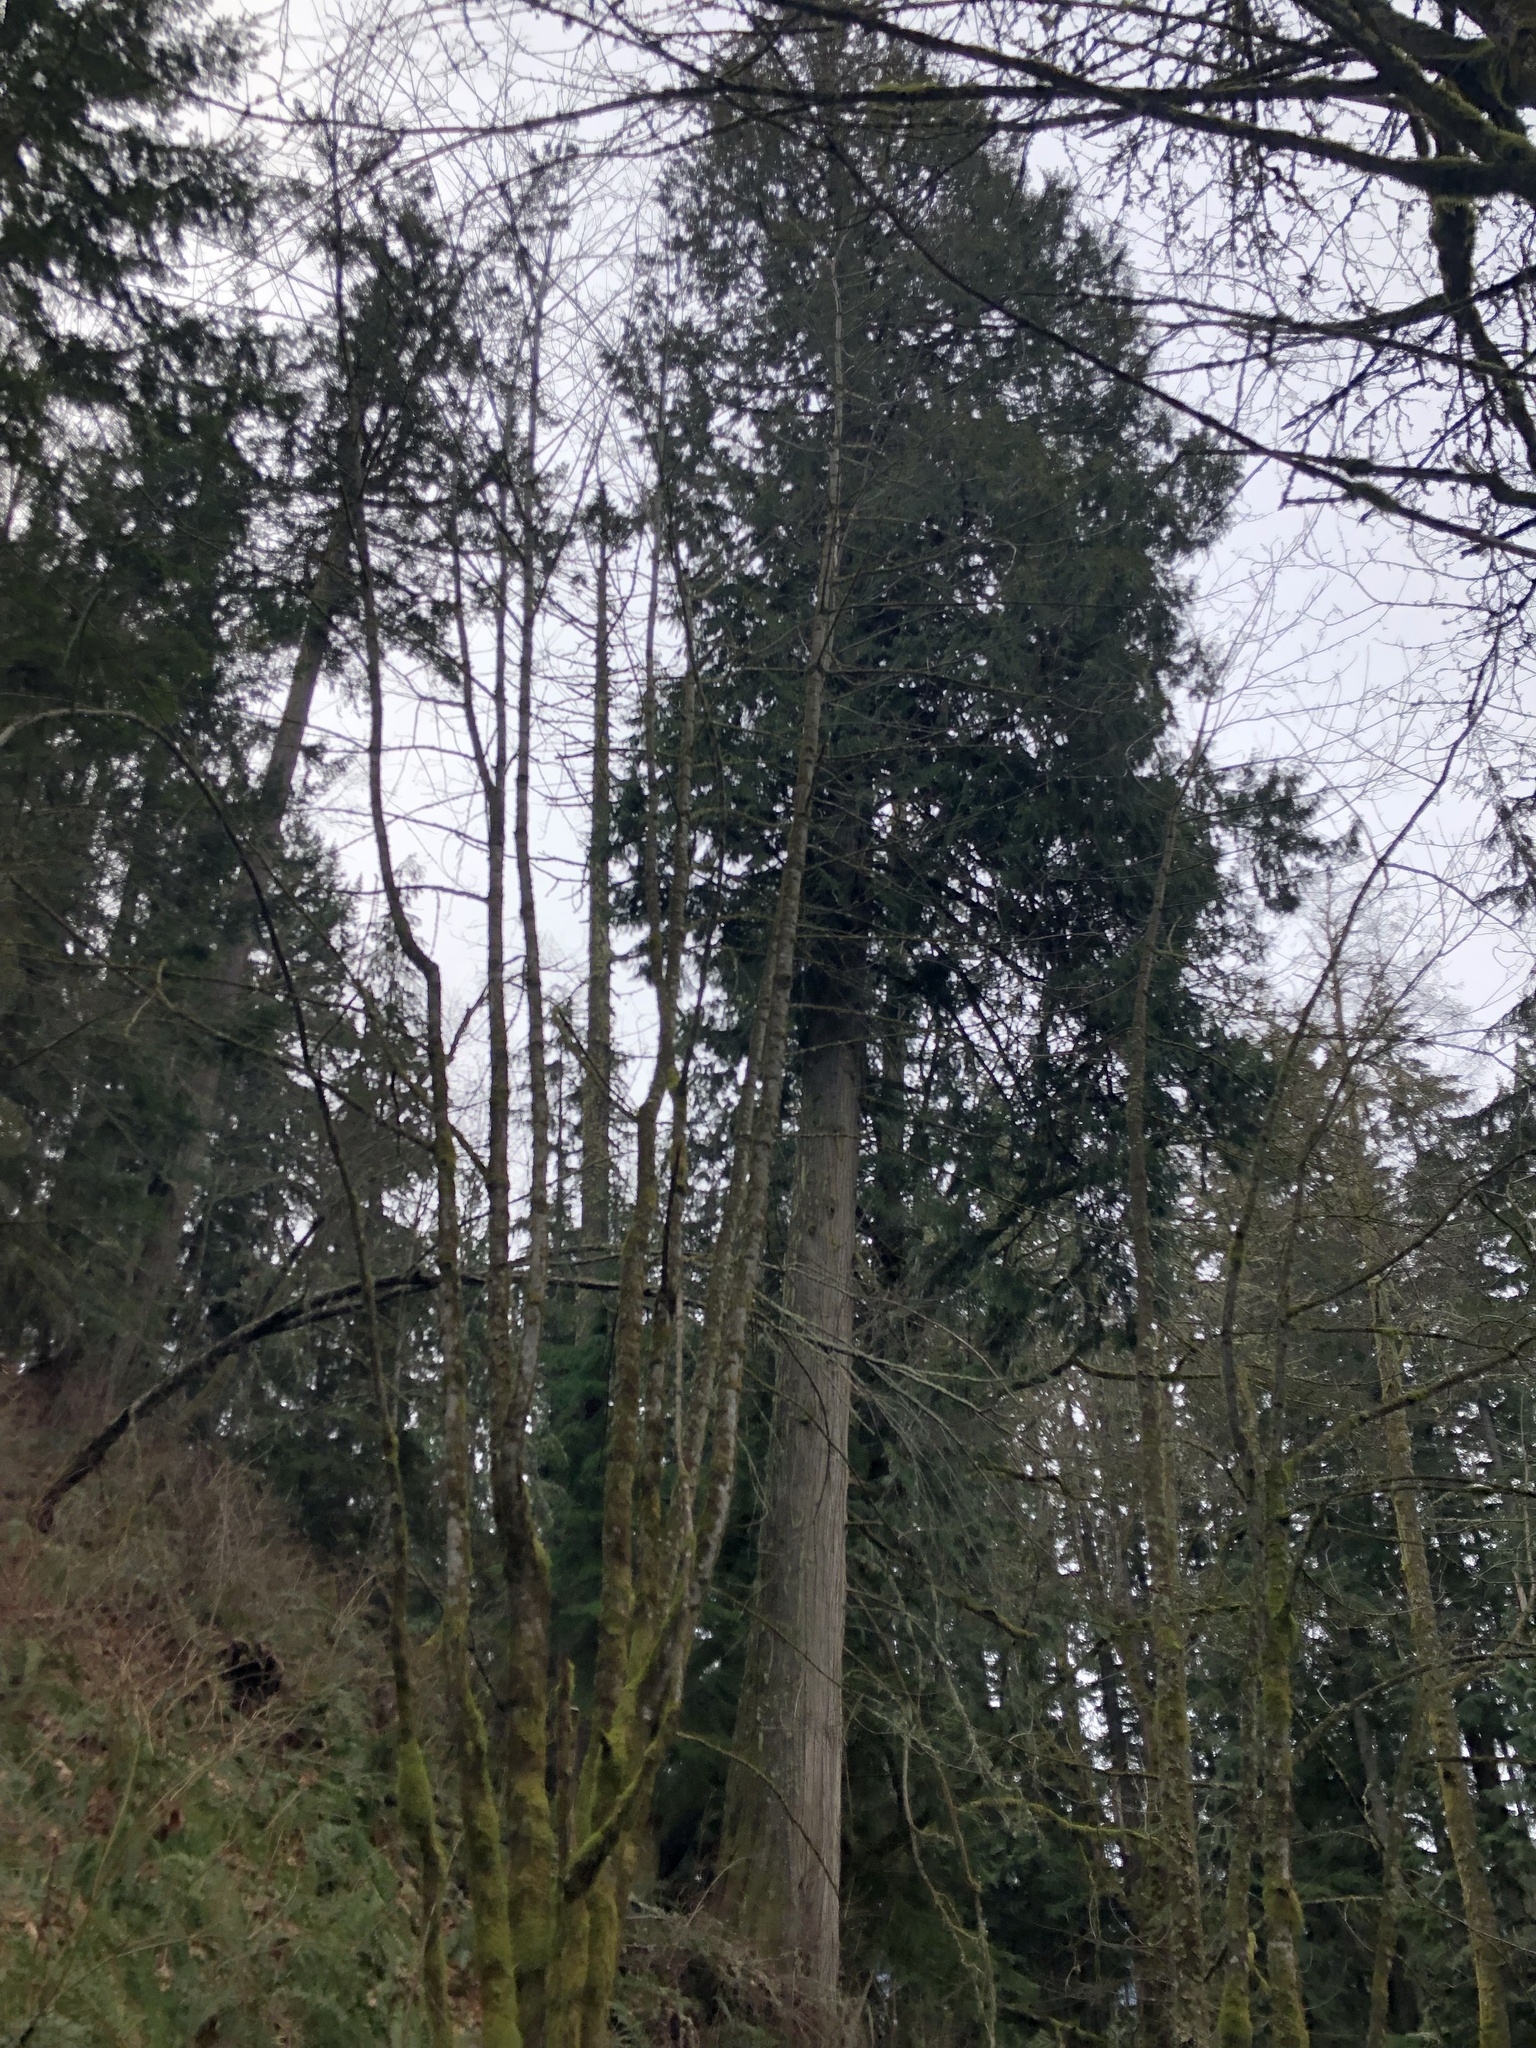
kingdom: Plantae
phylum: Tracheophyta
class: Pinopsida
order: Pinales
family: Cupressaceae
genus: Thuja
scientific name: Thuja plicata
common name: Western red-cedar
